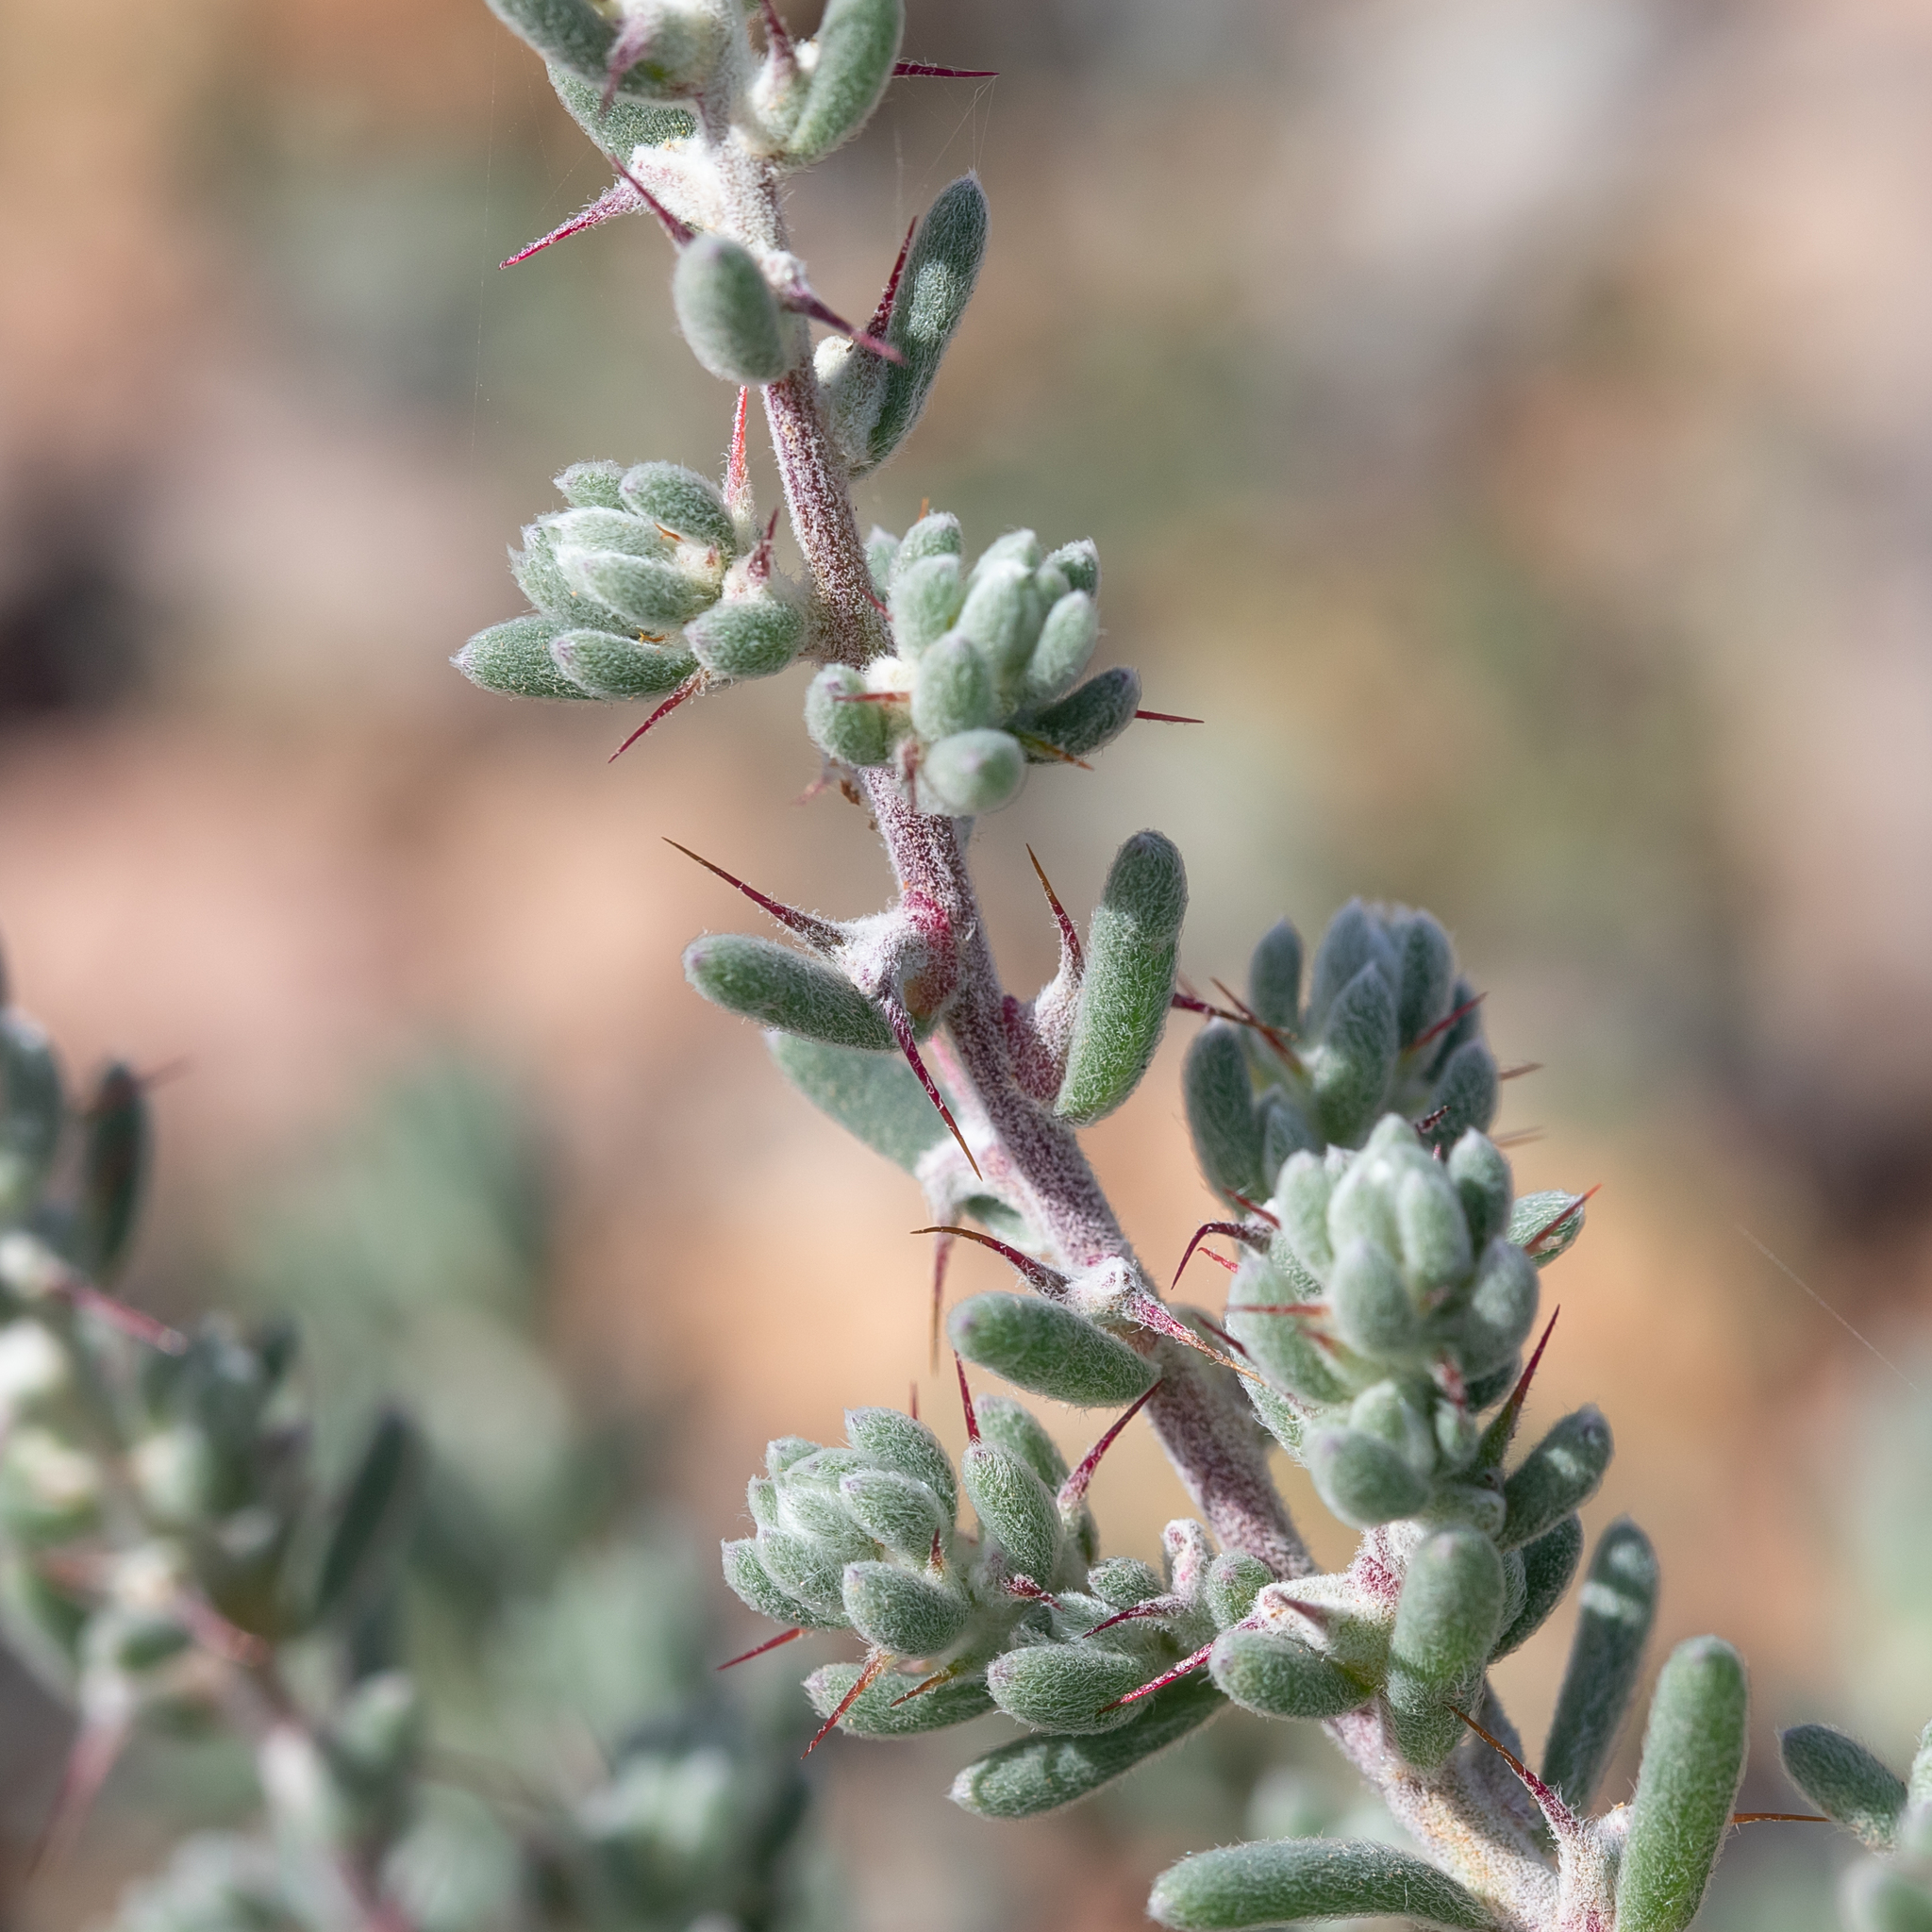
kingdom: Plantae
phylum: Tracheophyta
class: Magnoliopsida
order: Caryophyllales
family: Amaranthaceae
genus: Sclerolaena
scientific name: Sclerolaena obliquicuspis
